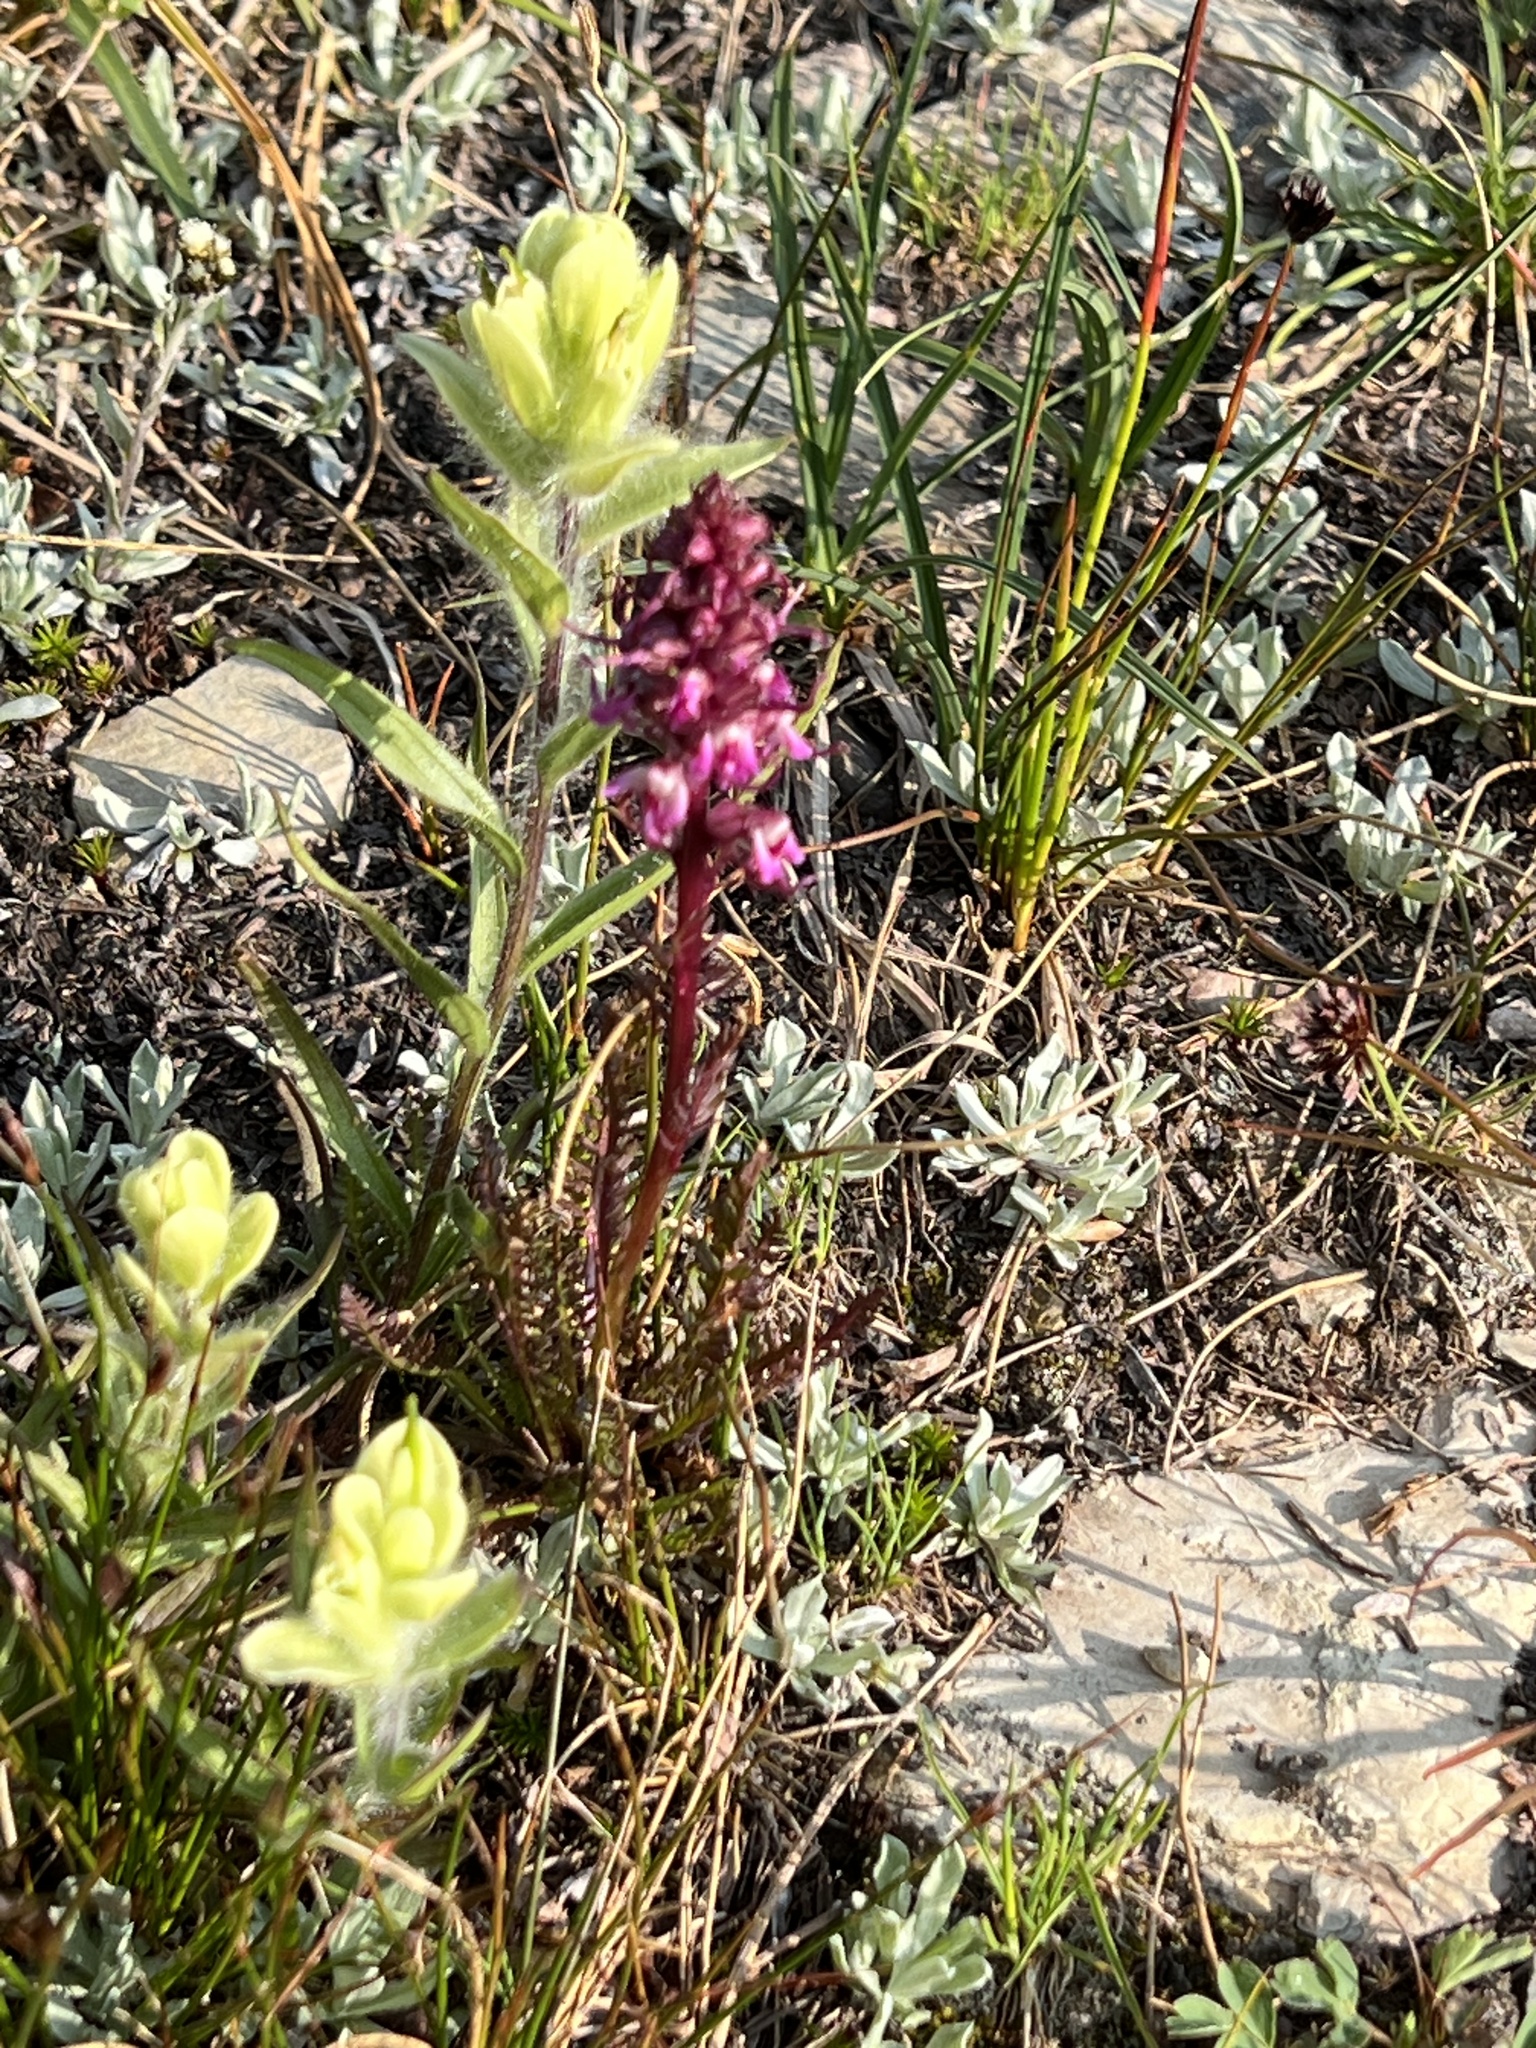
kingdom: Plantae
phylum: Tracheophyta
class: Magnoliopsida
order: Lamiales
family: Orobanchaceae
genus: Pedicularis
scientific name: Pedicularis groenlandica
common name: Elephant's-head
